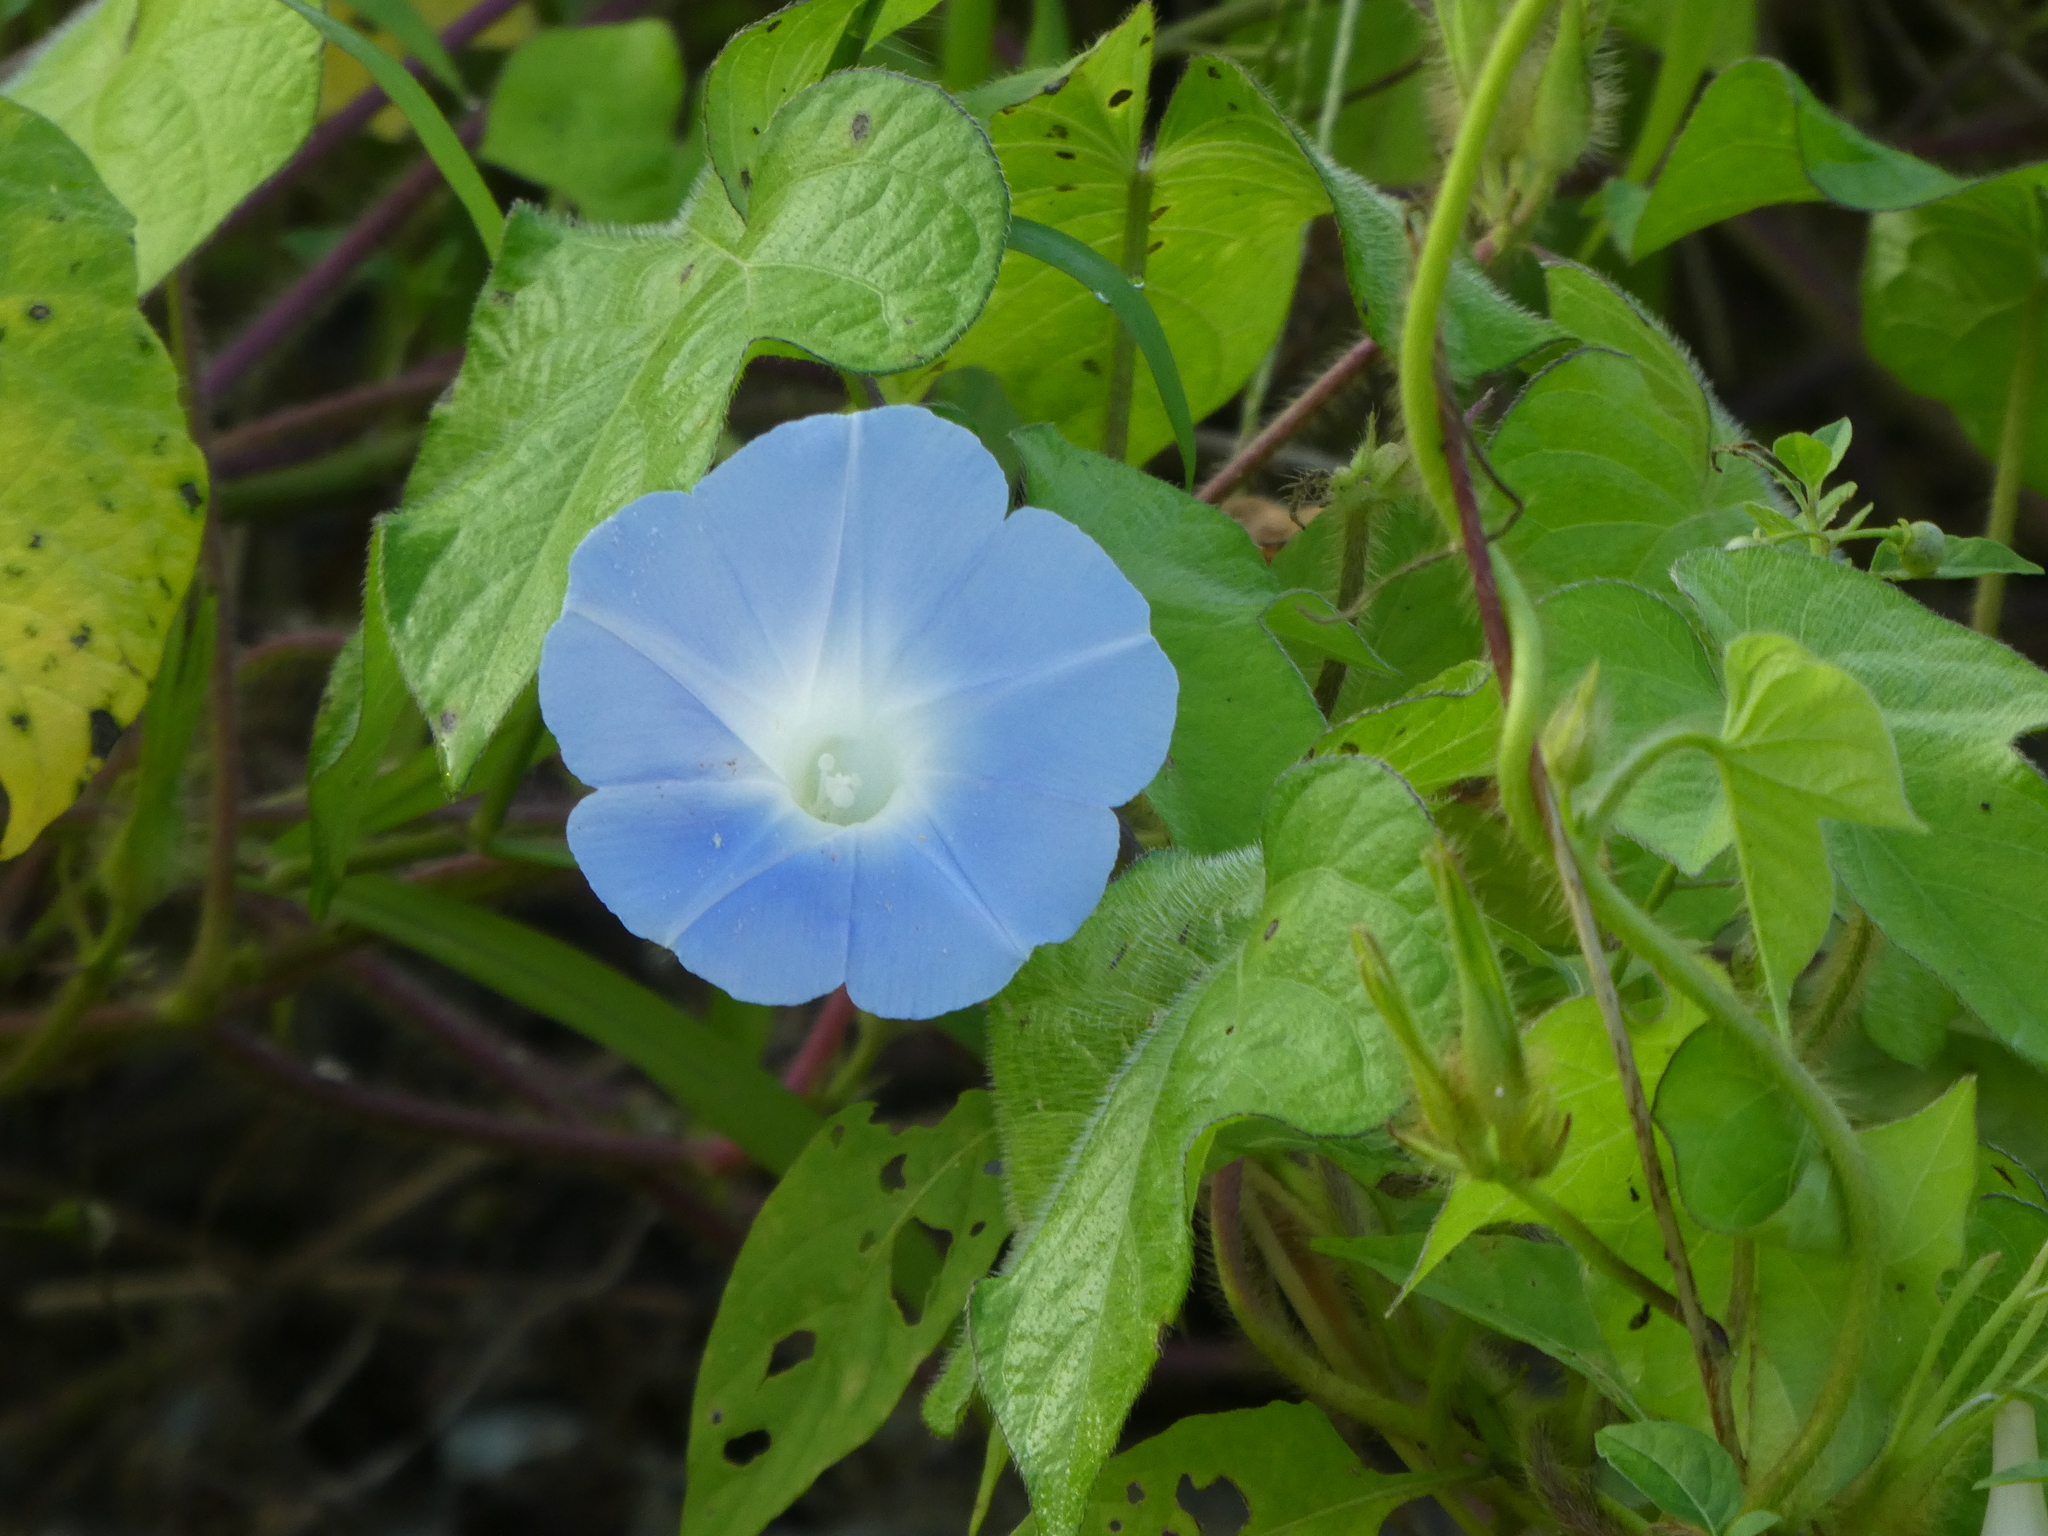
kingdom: Plantae
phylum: Tracheophyta
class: Magnoliopsida
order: Solanales
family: Convolvulaceae
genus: Ipomoea
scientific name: Ipomoea nil
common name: Japanese morning-glory
